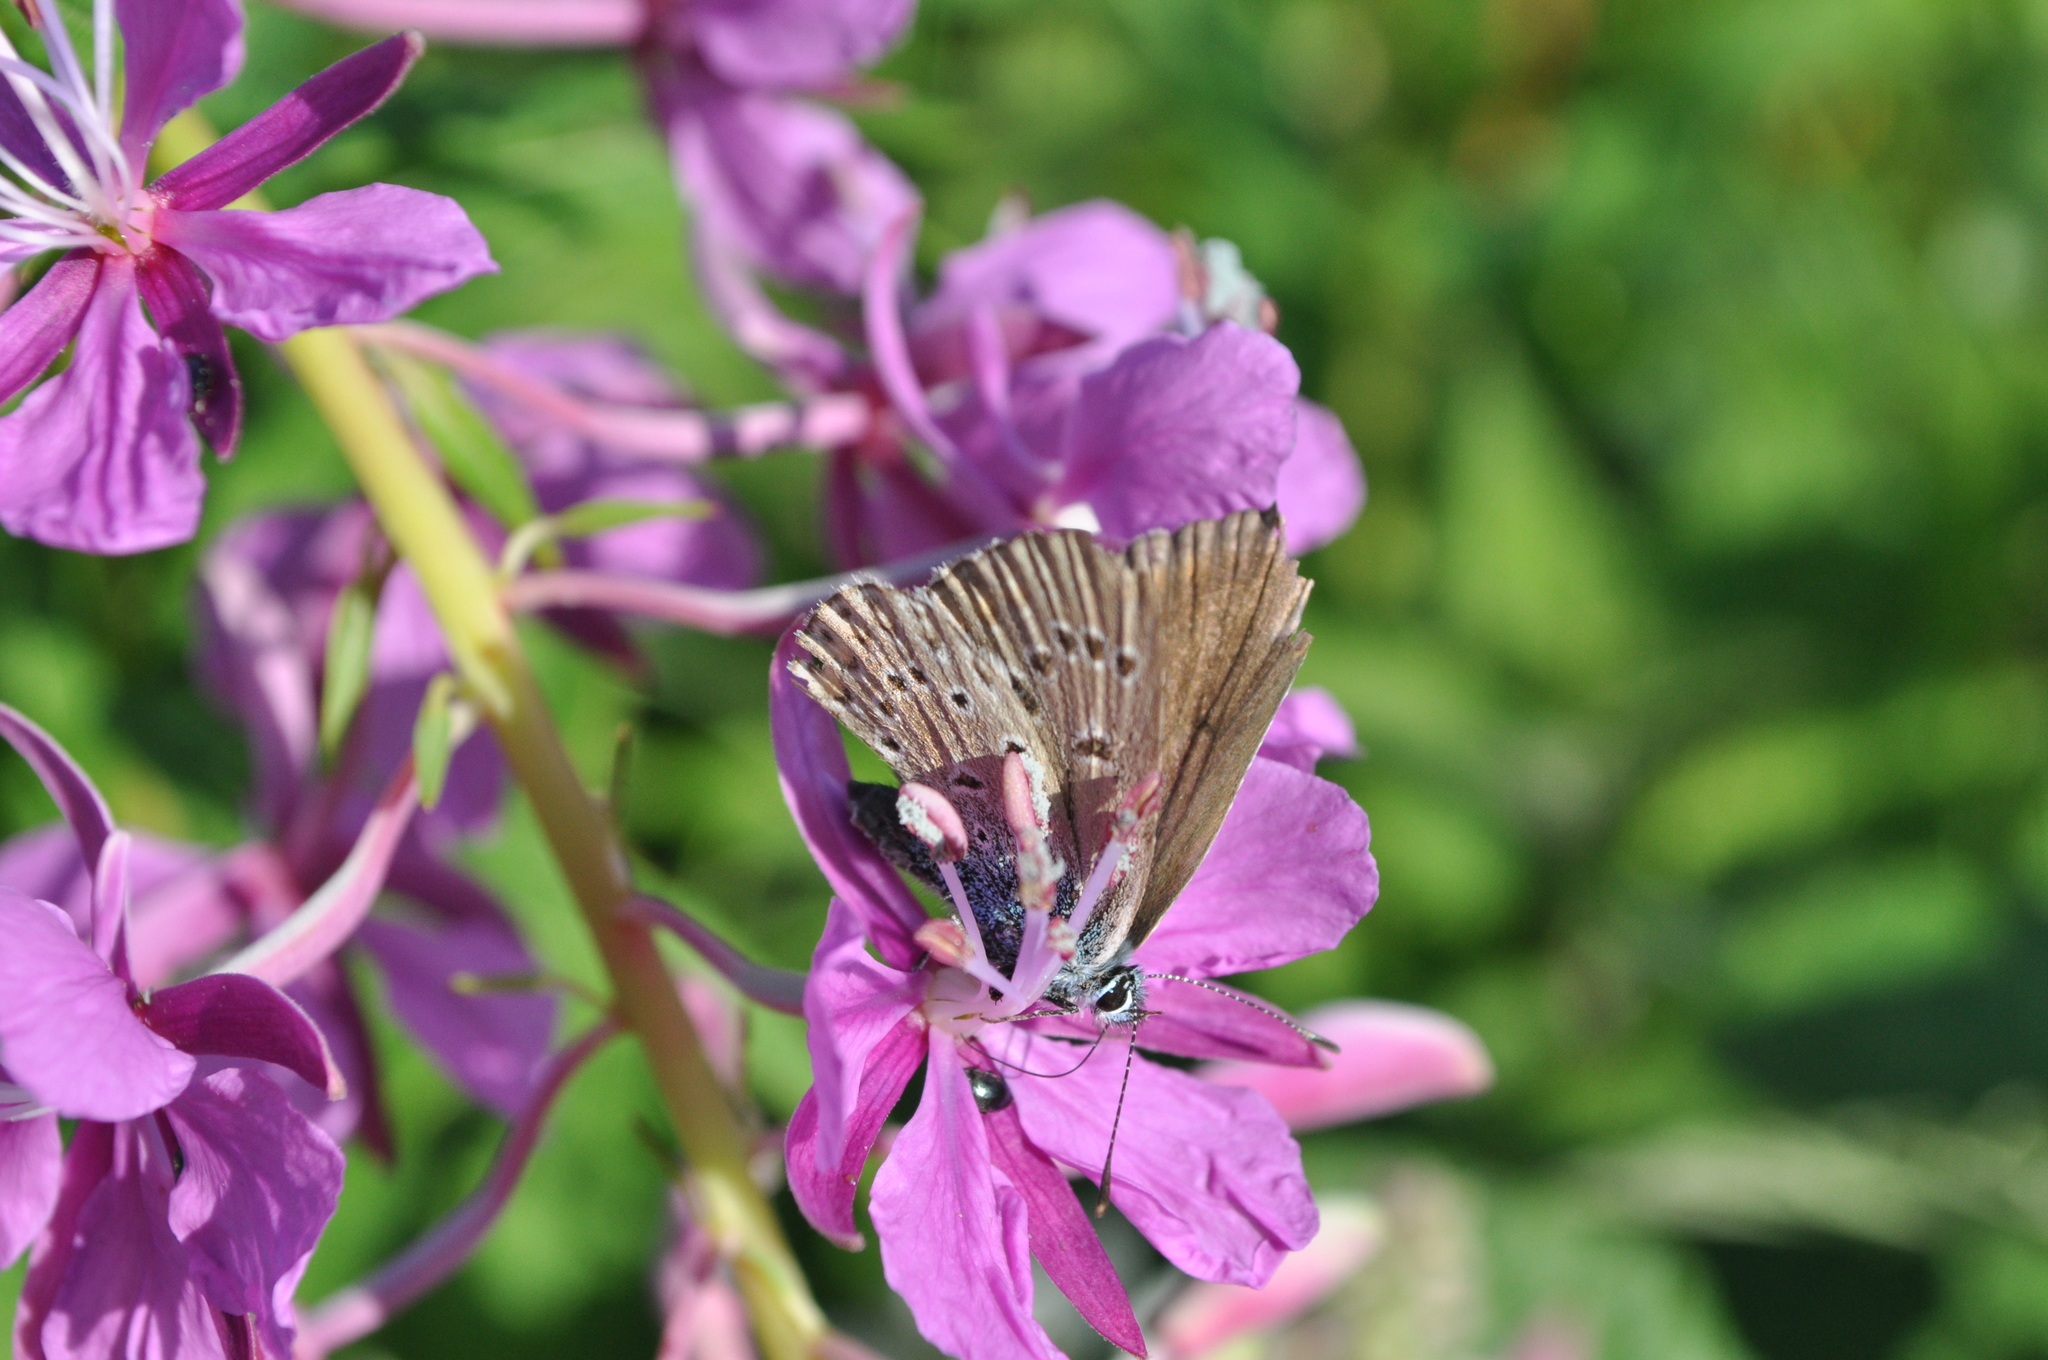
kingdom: Animalia
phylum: Arthropoda
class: Insecta
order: Lepidoptera
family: Lycaenidae
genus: Plebejus
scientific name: Plebejus amanda
